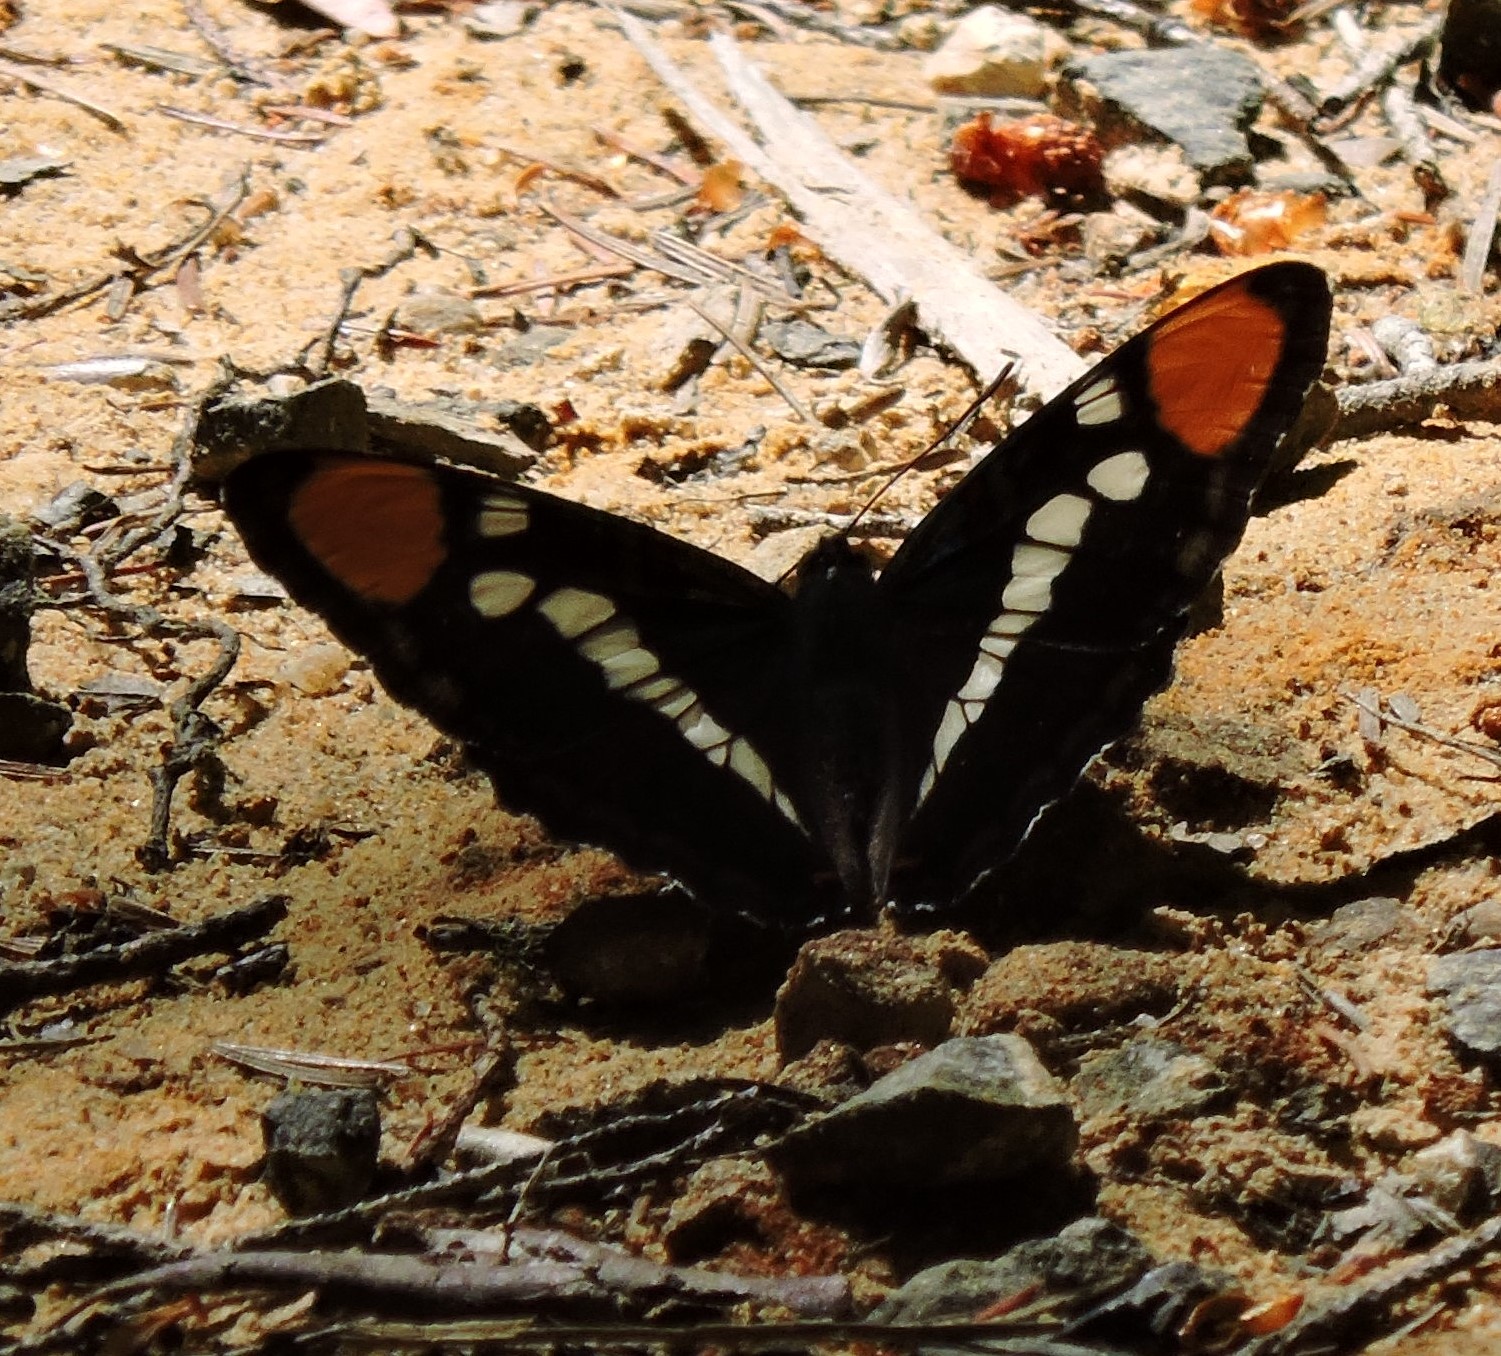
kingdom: Animalia
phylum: Arthropoda
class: Insecta
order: Lepidoptera
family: Nymphalidae
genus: Limenitis
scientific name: Limenitis bredowii
